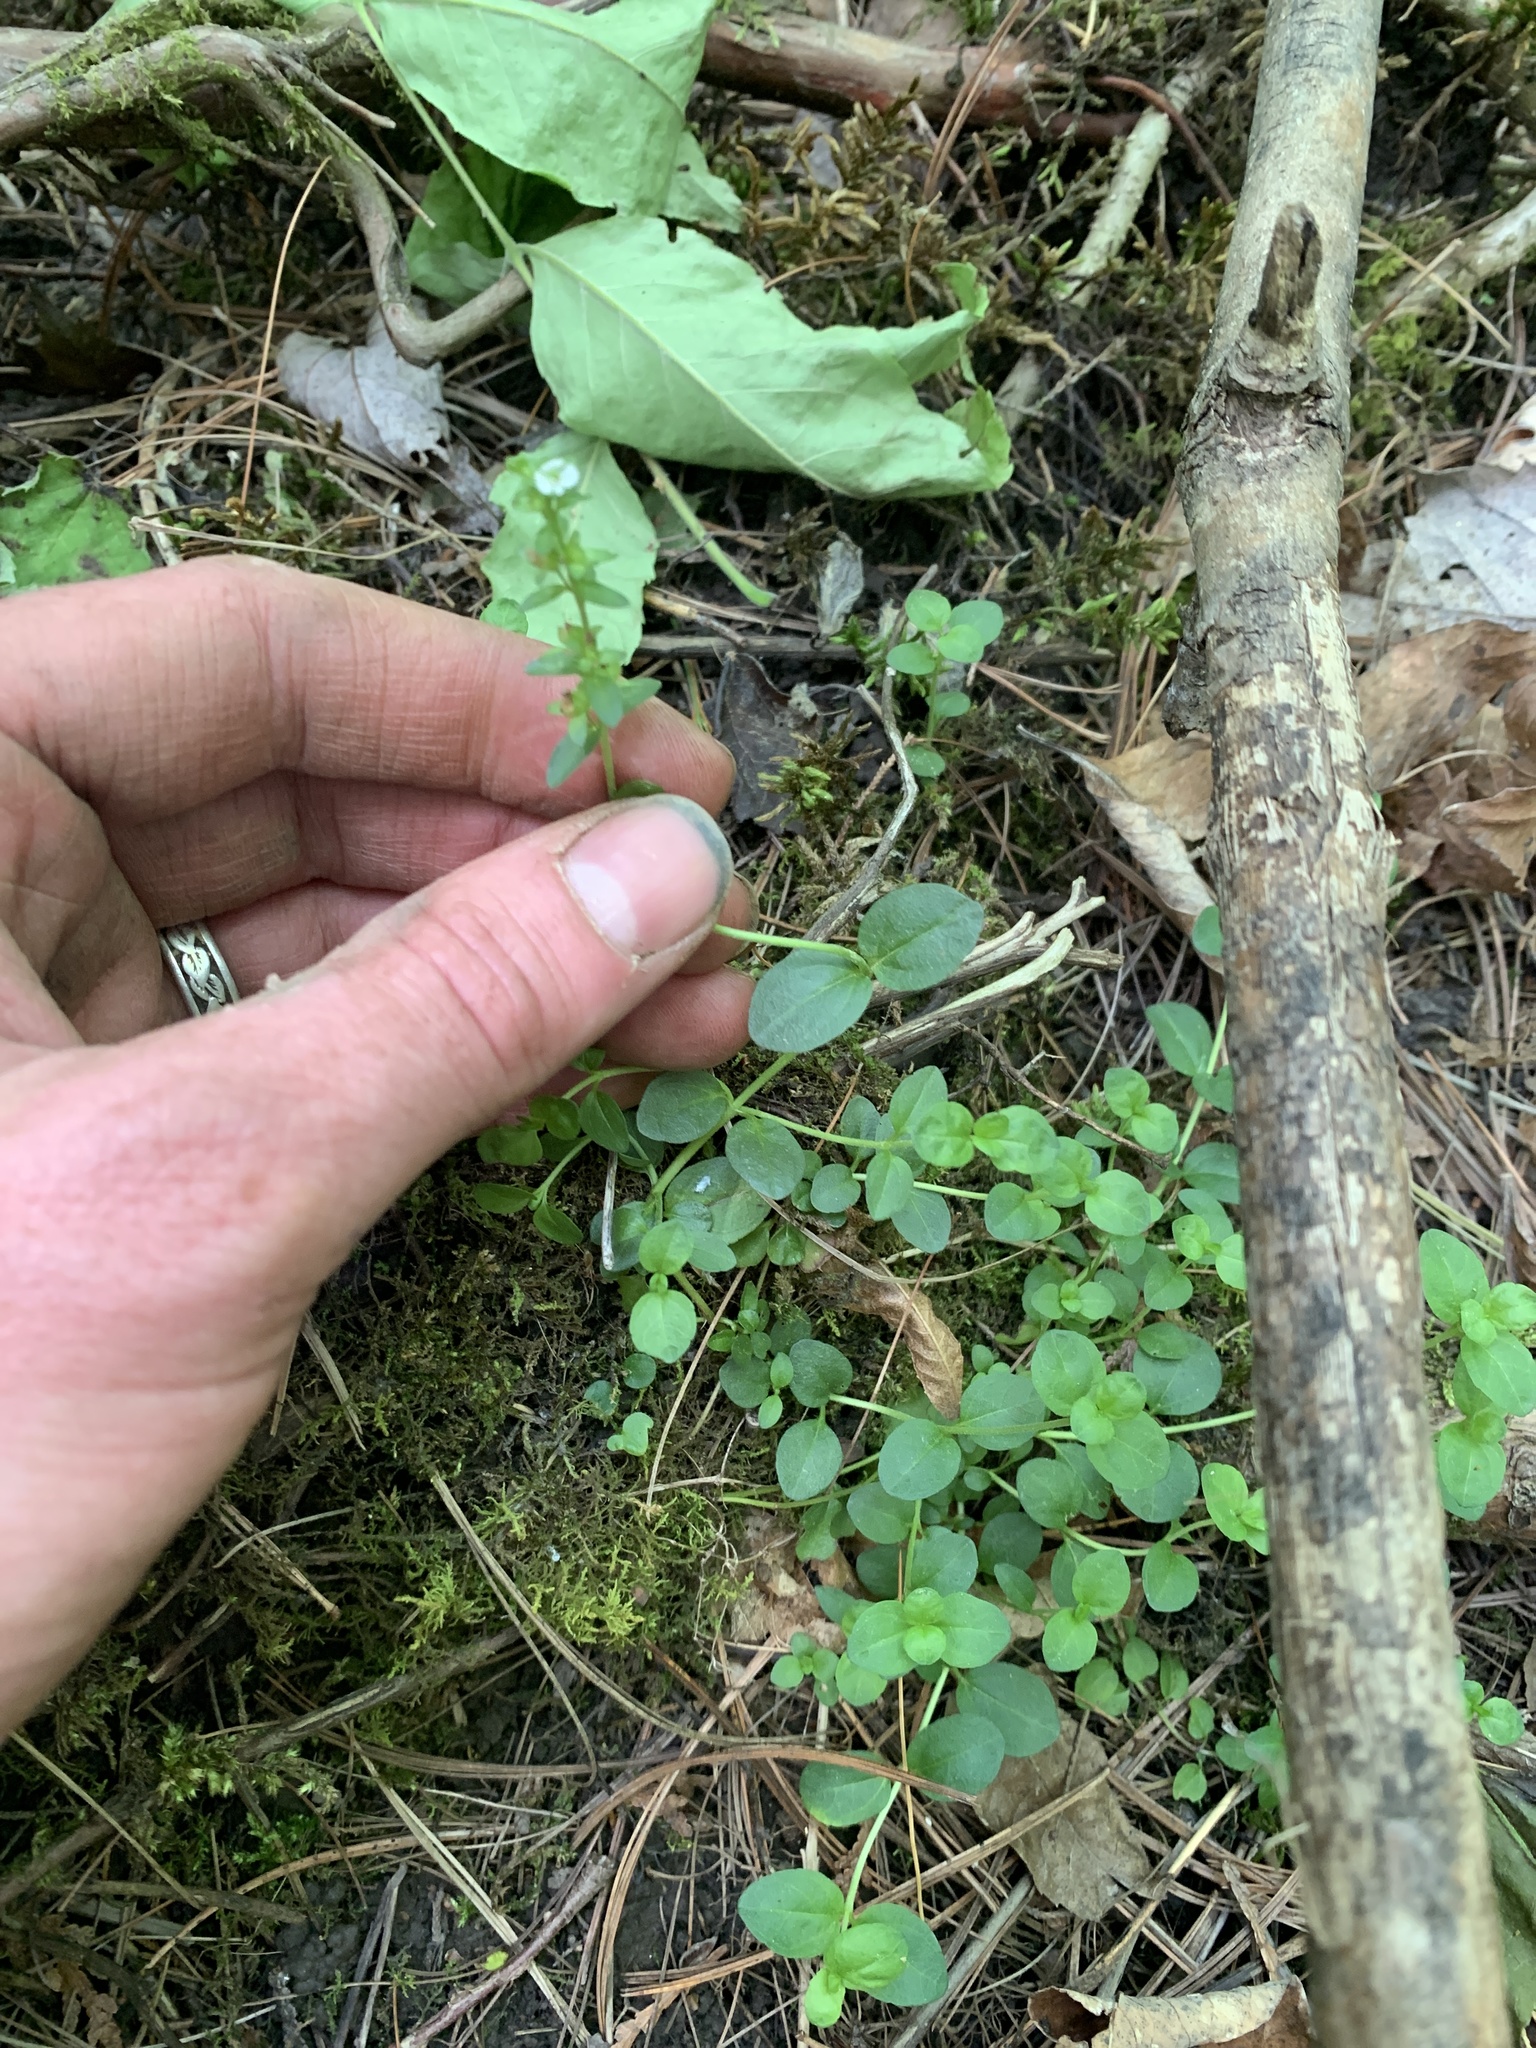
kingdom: Plantae
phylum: Tracheophyta
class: Magnoliopsida
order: Lamiales
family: Plantaginaceae
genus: Veronica
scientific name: Veronica serpyllifolia
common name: Thyme-leaved speedwell
